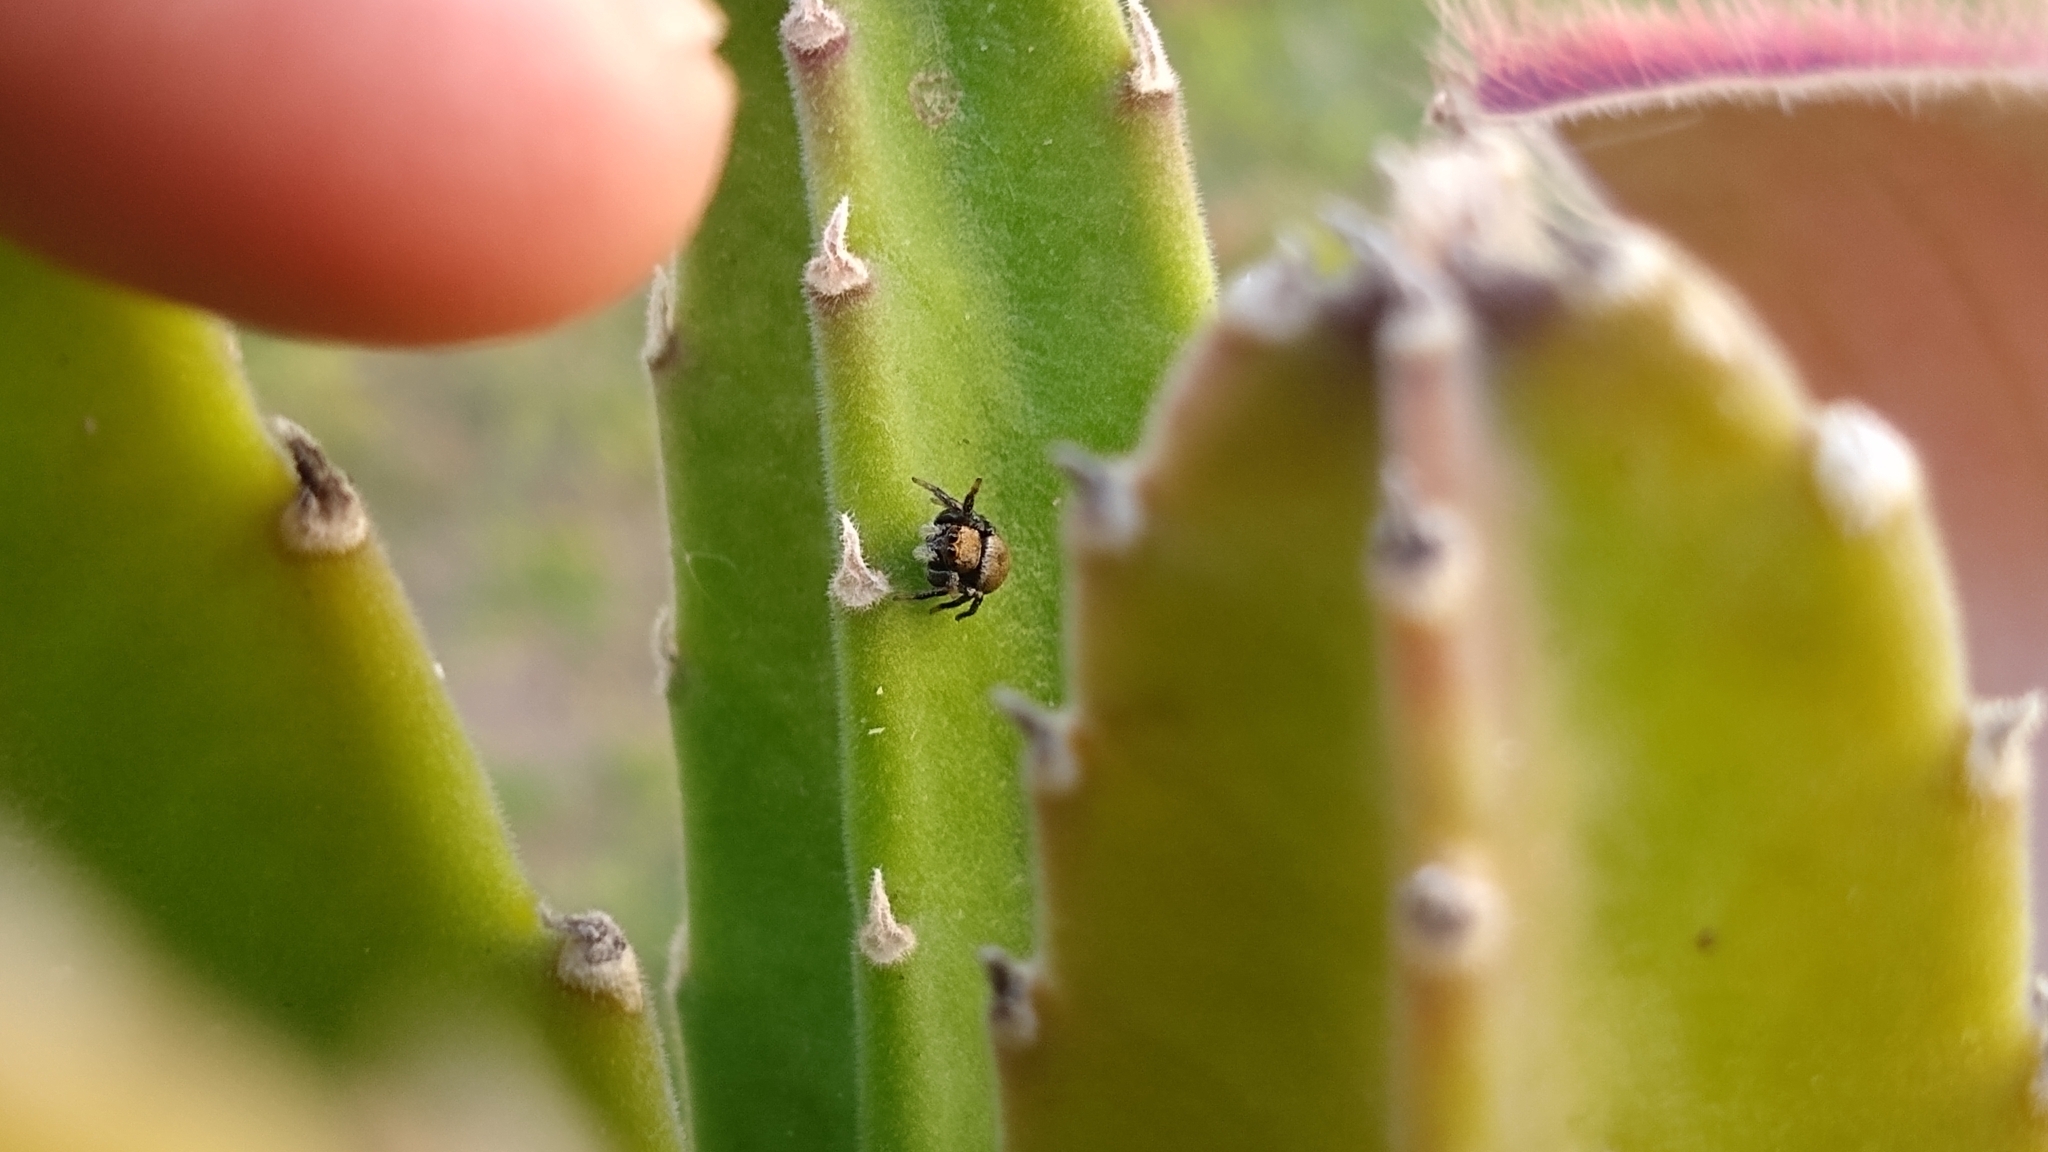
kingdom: Animalia
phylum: Arthropoda
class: Arachnida
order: Araneae
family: Salticidae
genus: Phiale
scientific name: Phiale roburifoliata
